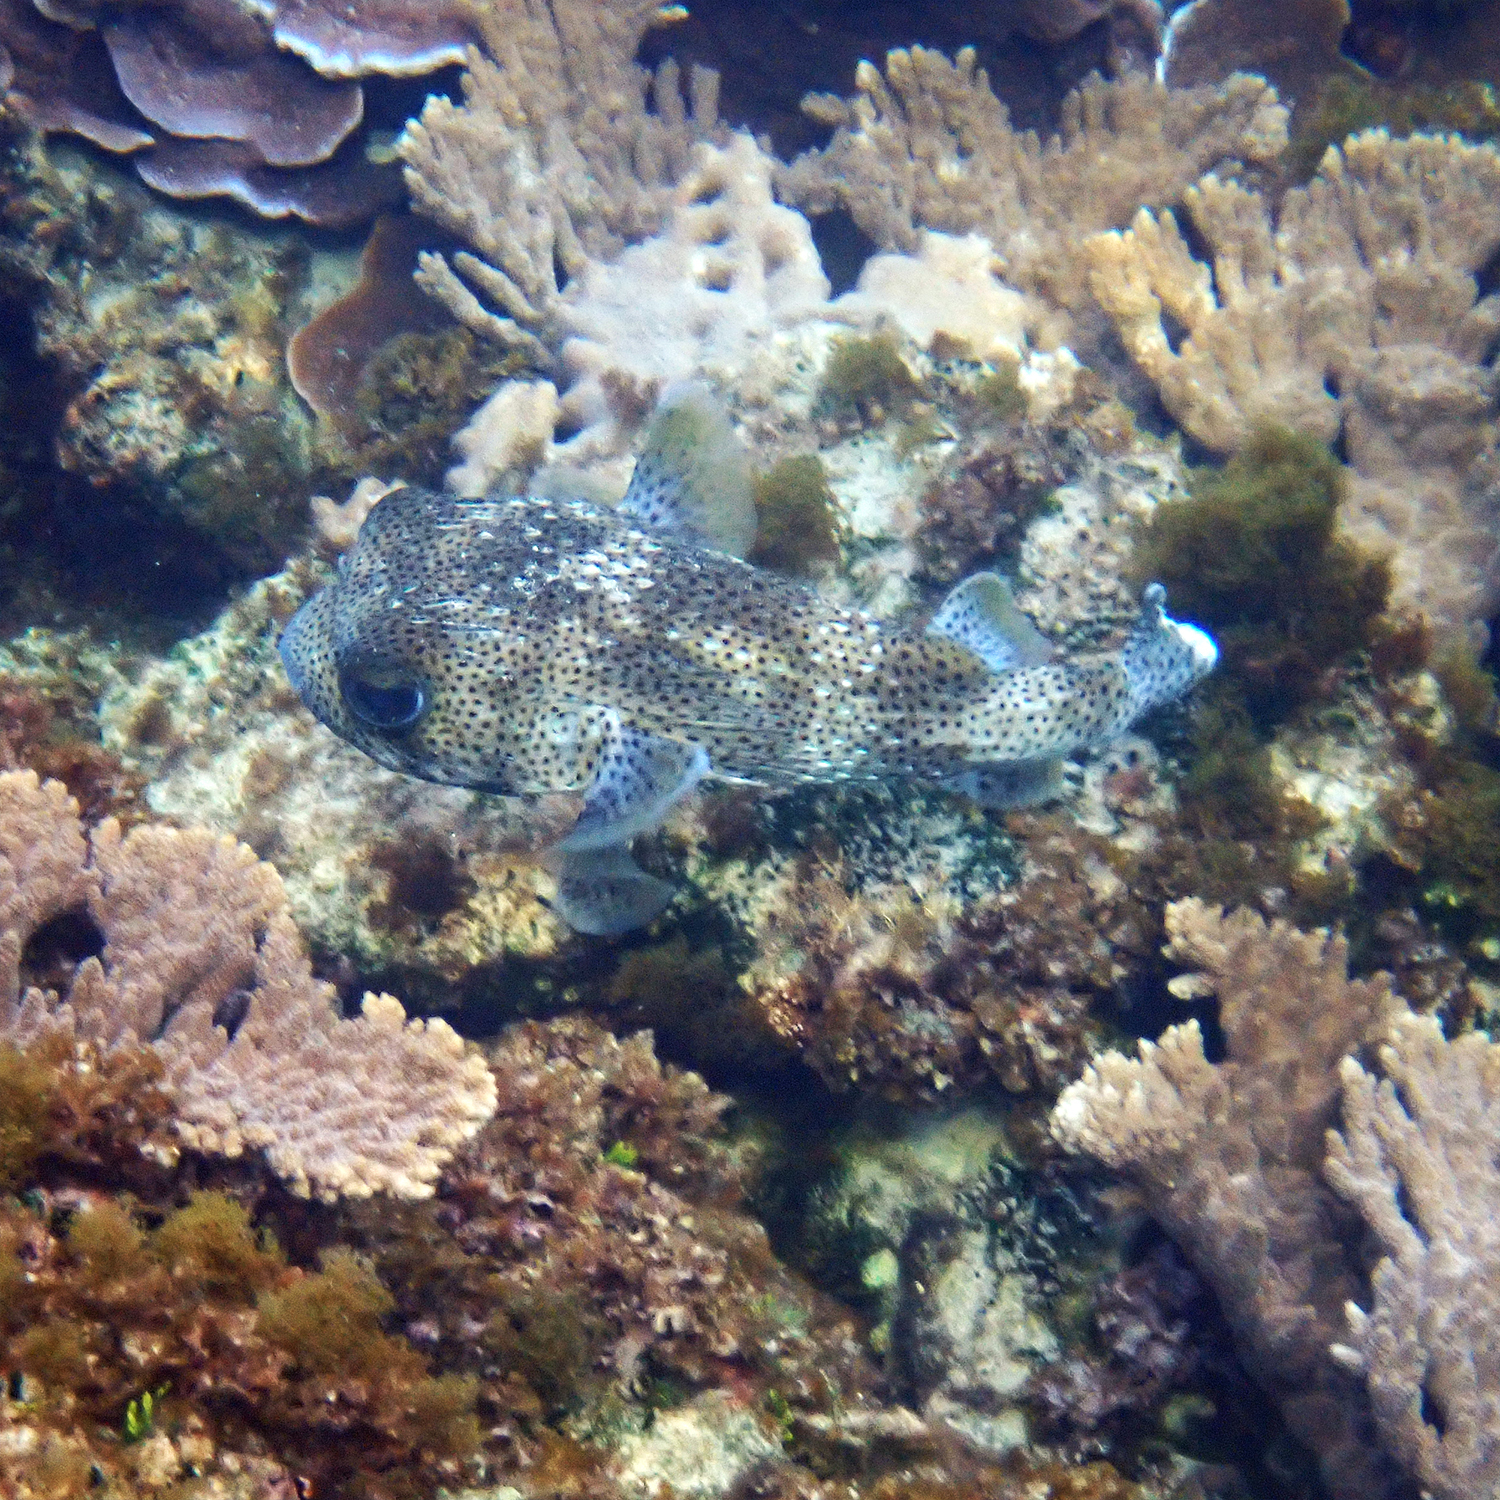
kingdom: Animalia
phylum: Chordata
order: Tetraodontiformes
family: Diodontidae
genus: Diodon
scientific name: Diodon hystrix
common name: Giant porcupinefish
